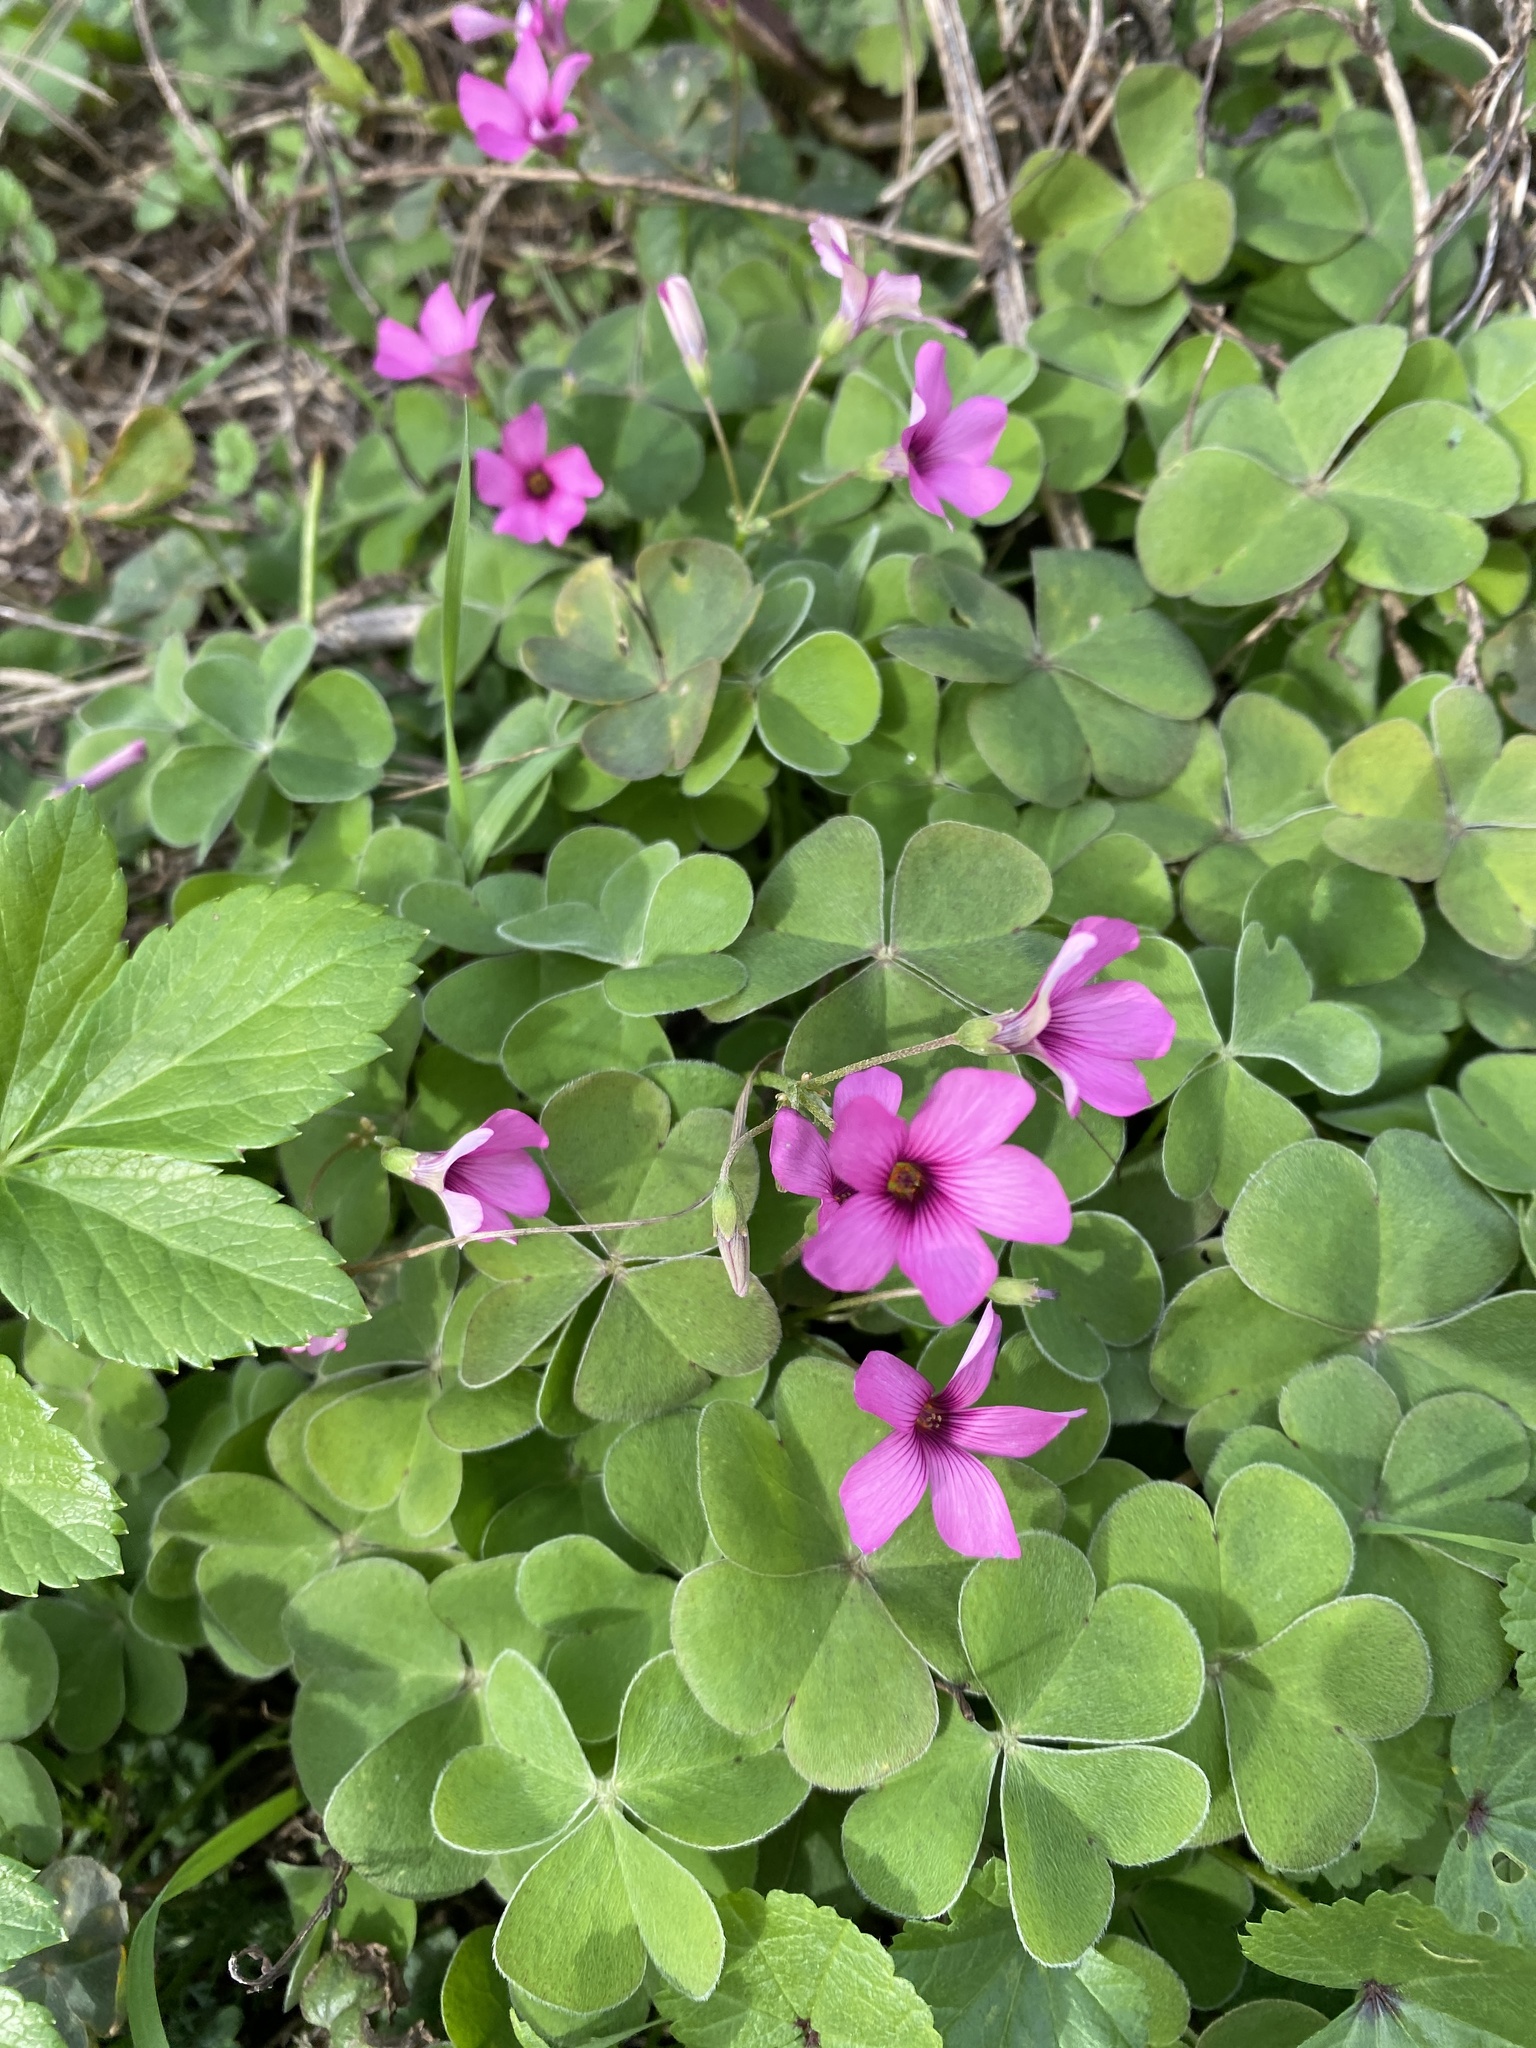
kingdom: Plantae
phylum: Tracheophyta
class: Magnoliopsida
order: Oxalidales
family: Oxalidaceae
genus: Oxalis
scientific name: Oxalis articulata
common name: Pink-sorrel
